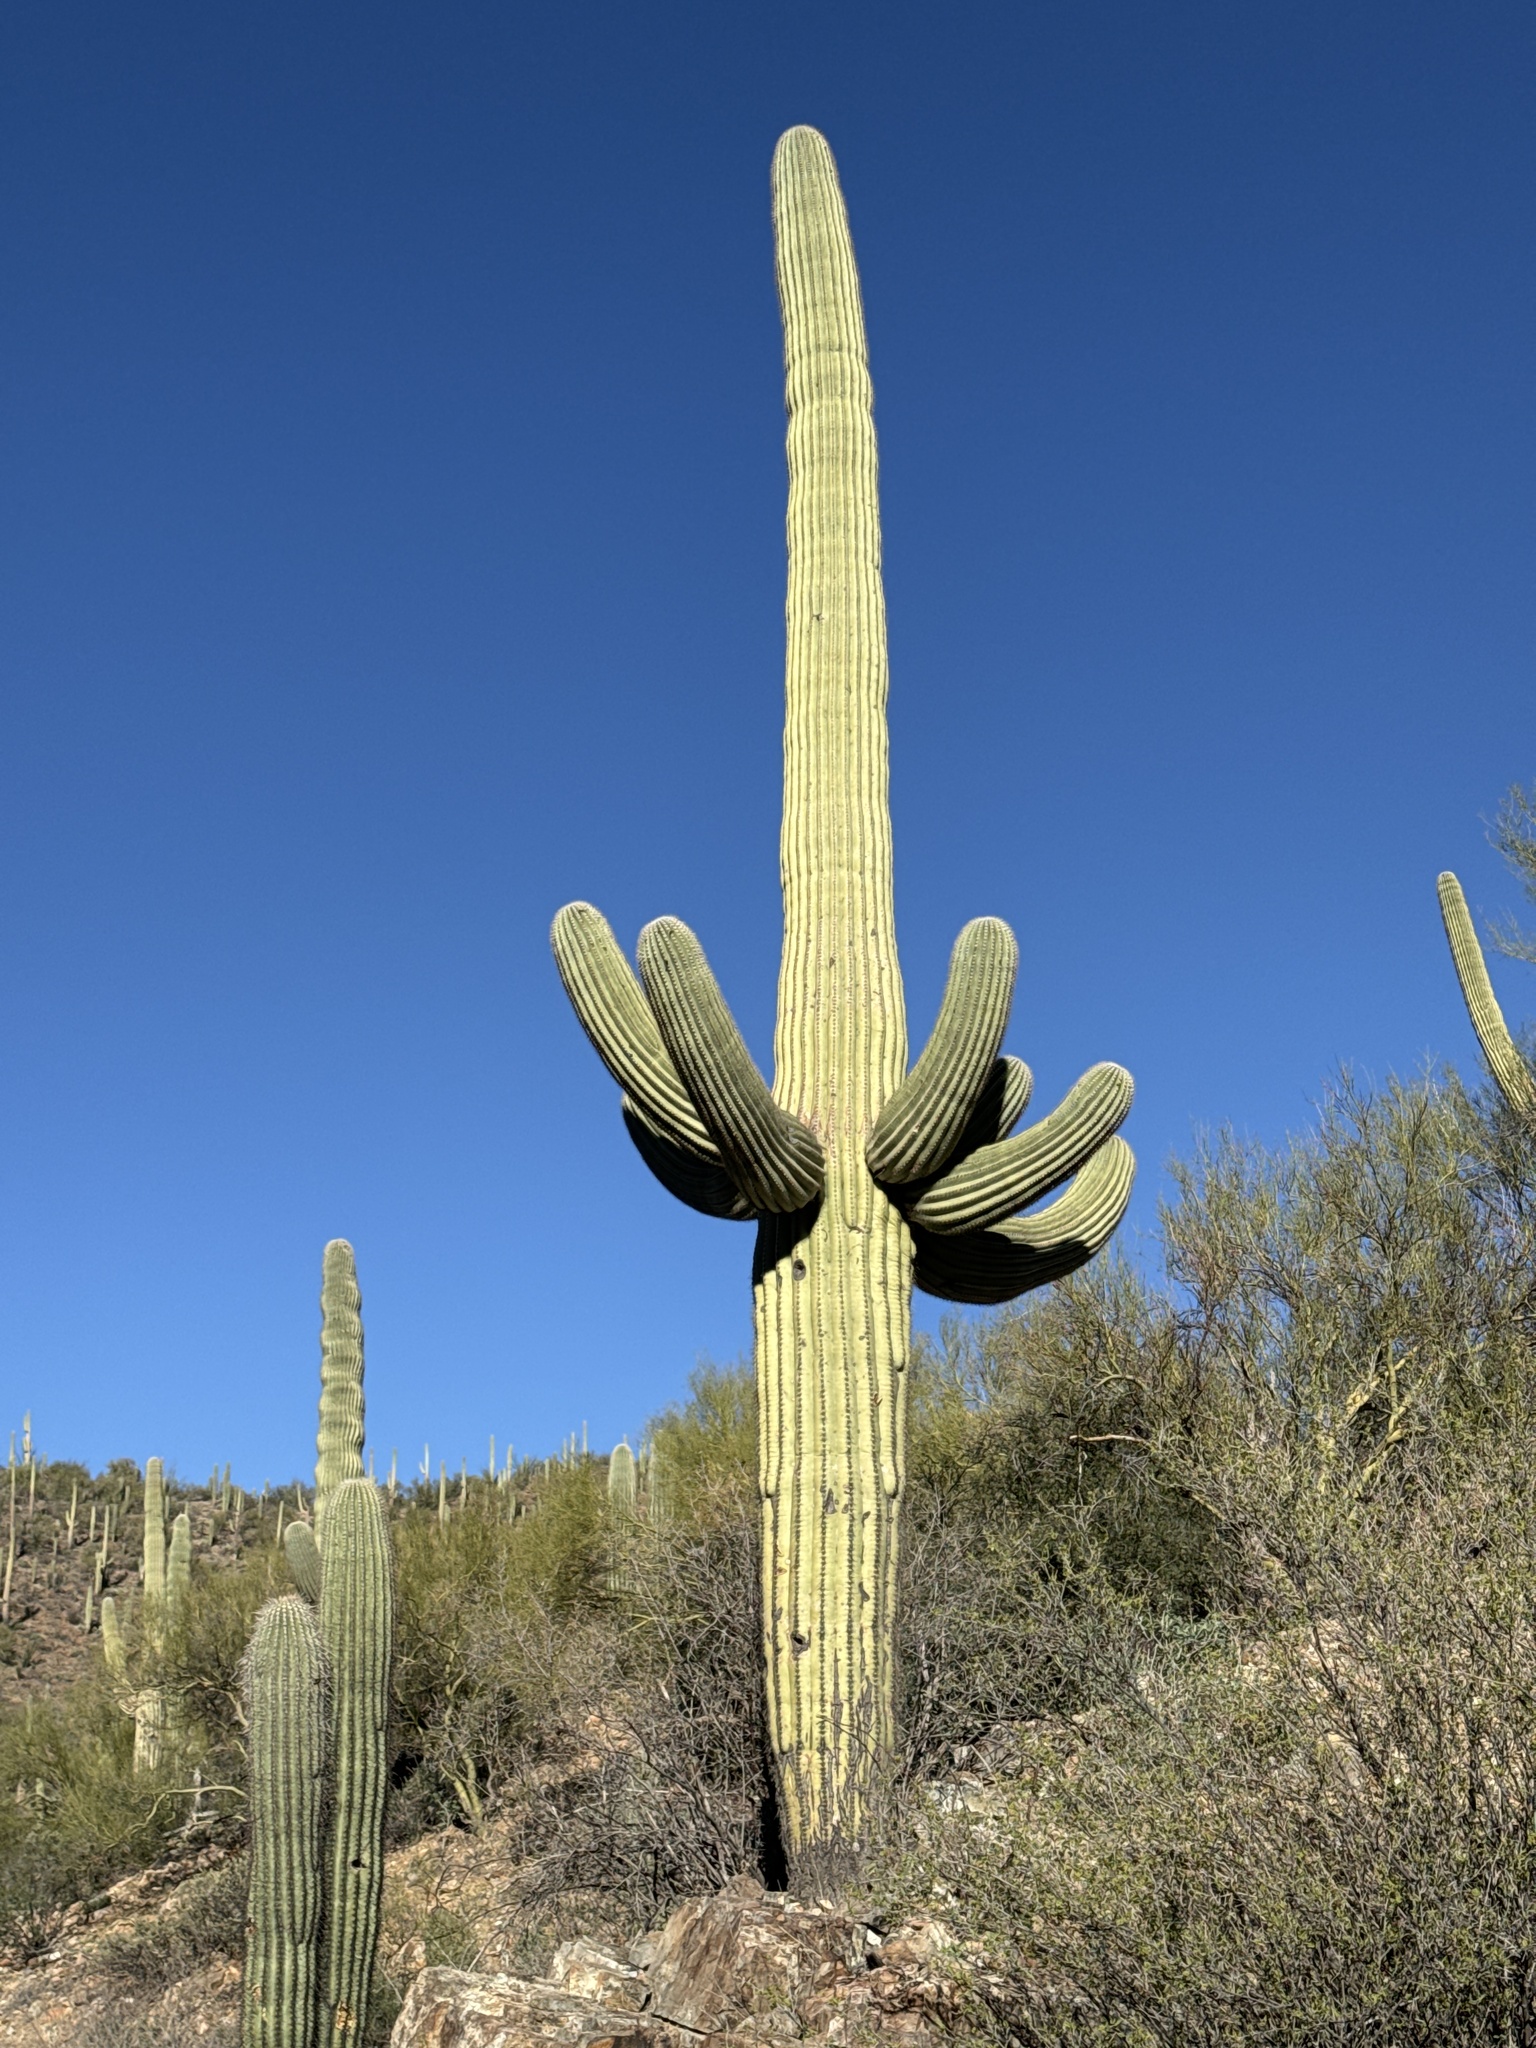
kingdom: Plantae
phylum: Tracheophyta
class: Magnoliopsida
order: Caryophyllales
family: Cactaceae
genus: Carnegiea
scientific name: Carnegiea gigantea
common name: Saguaro
